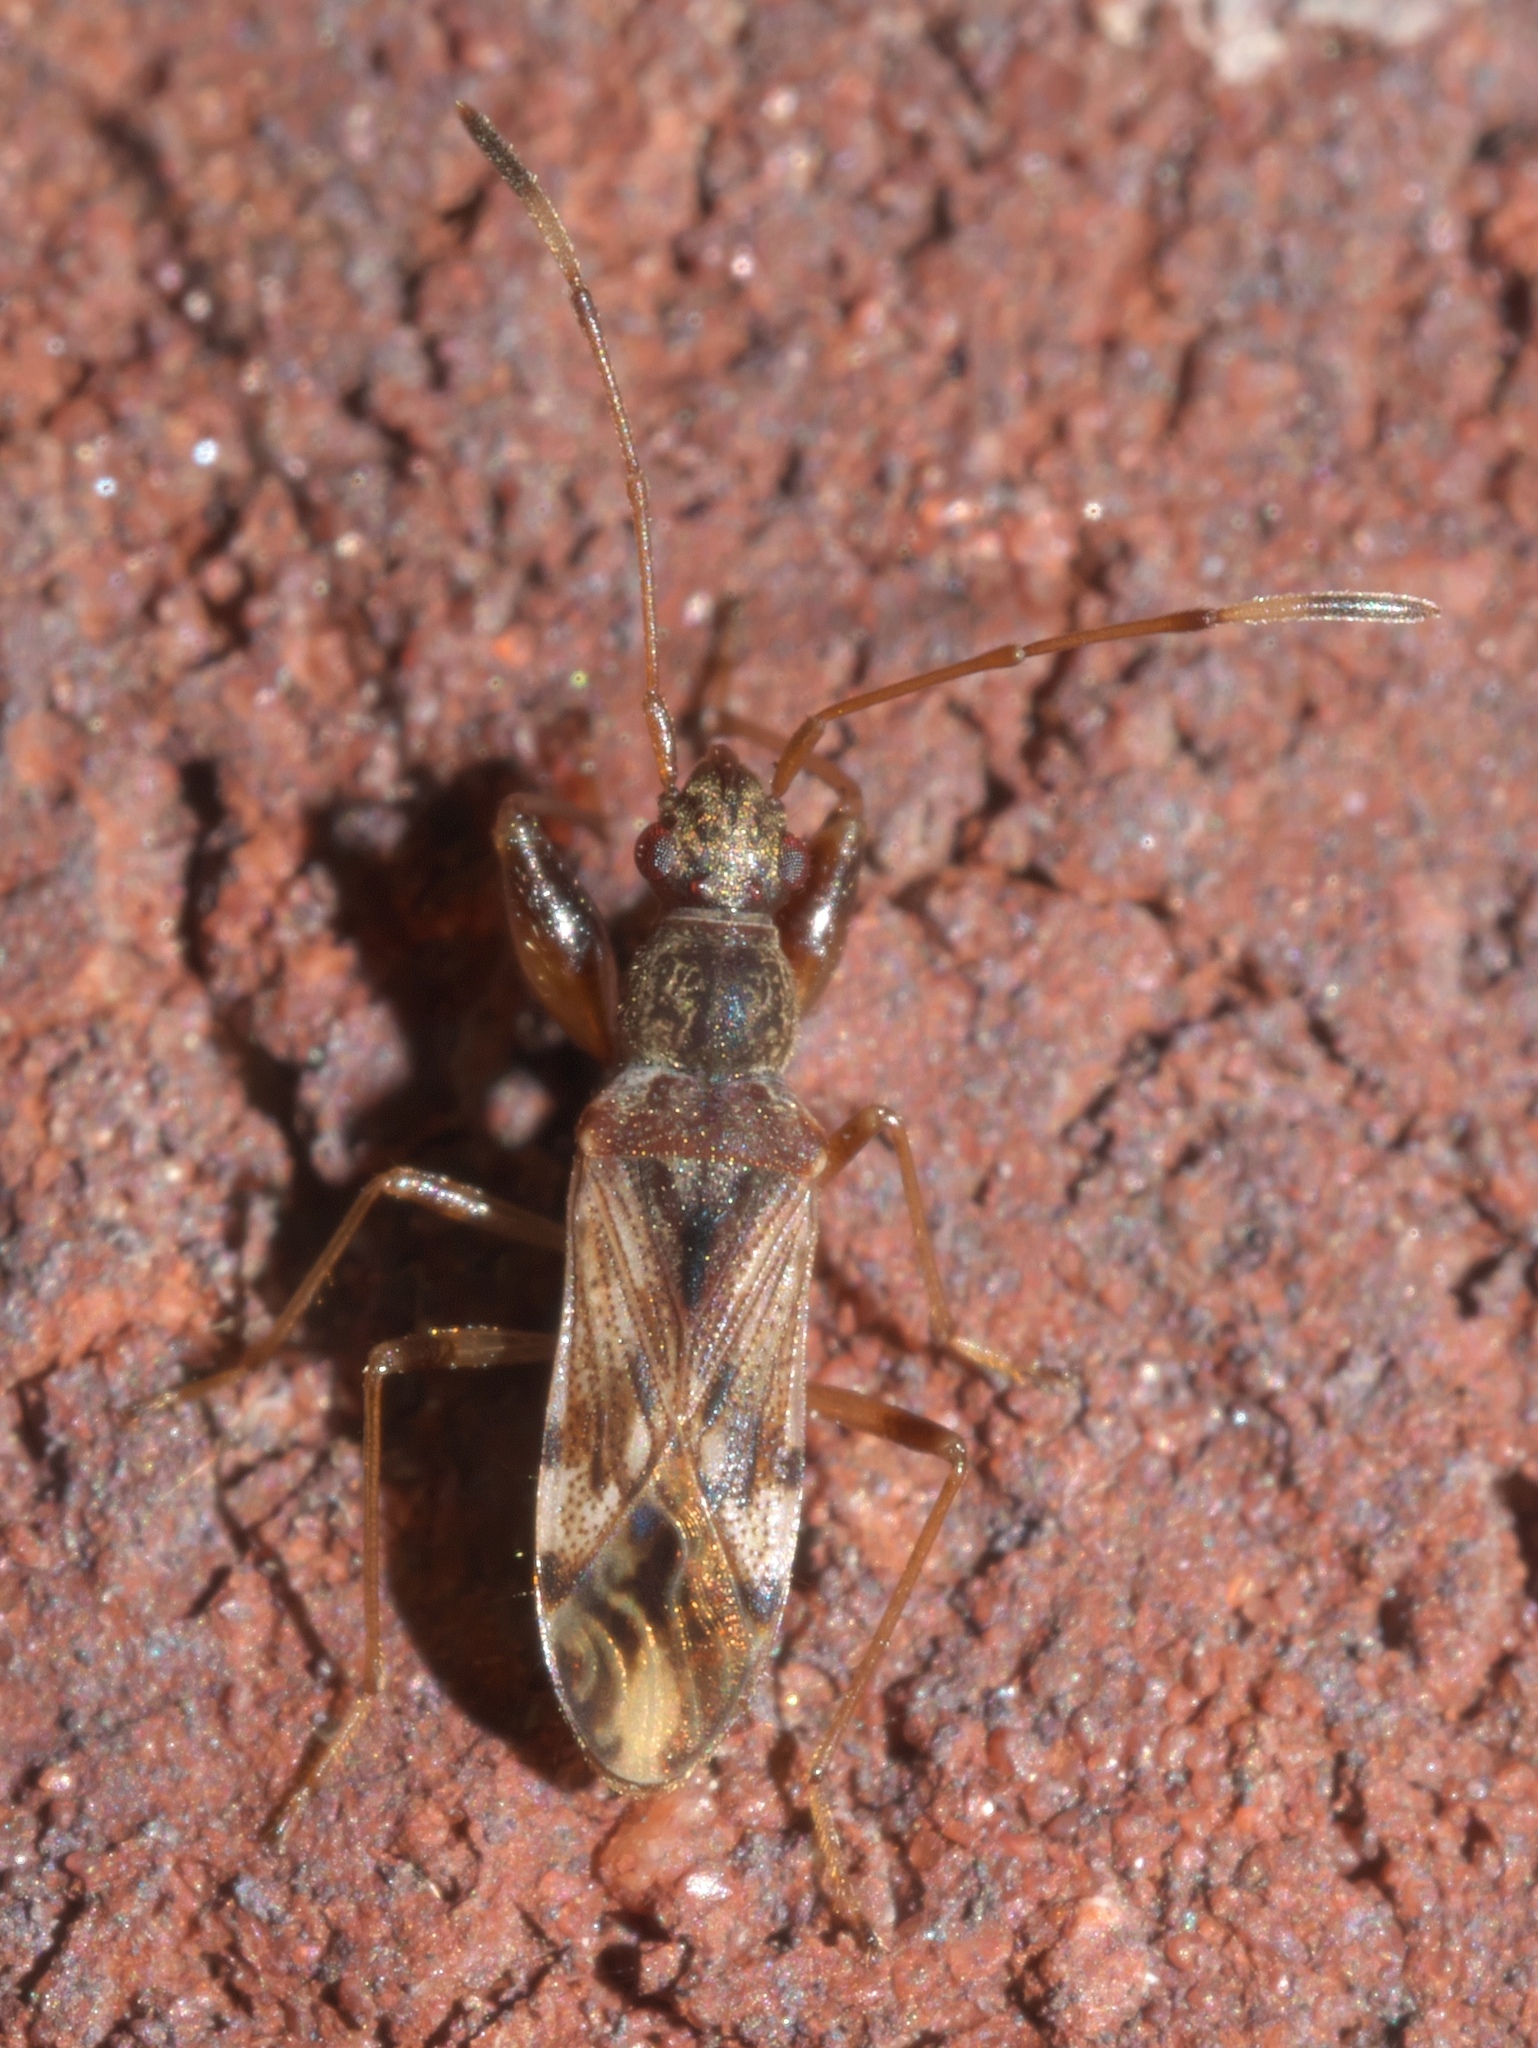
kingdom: Animalia
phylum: Arthropoda
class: Insecta
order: Hemiptera
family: Rhyparochromidae
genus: Neopamera
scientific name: Neopamera albocincta
